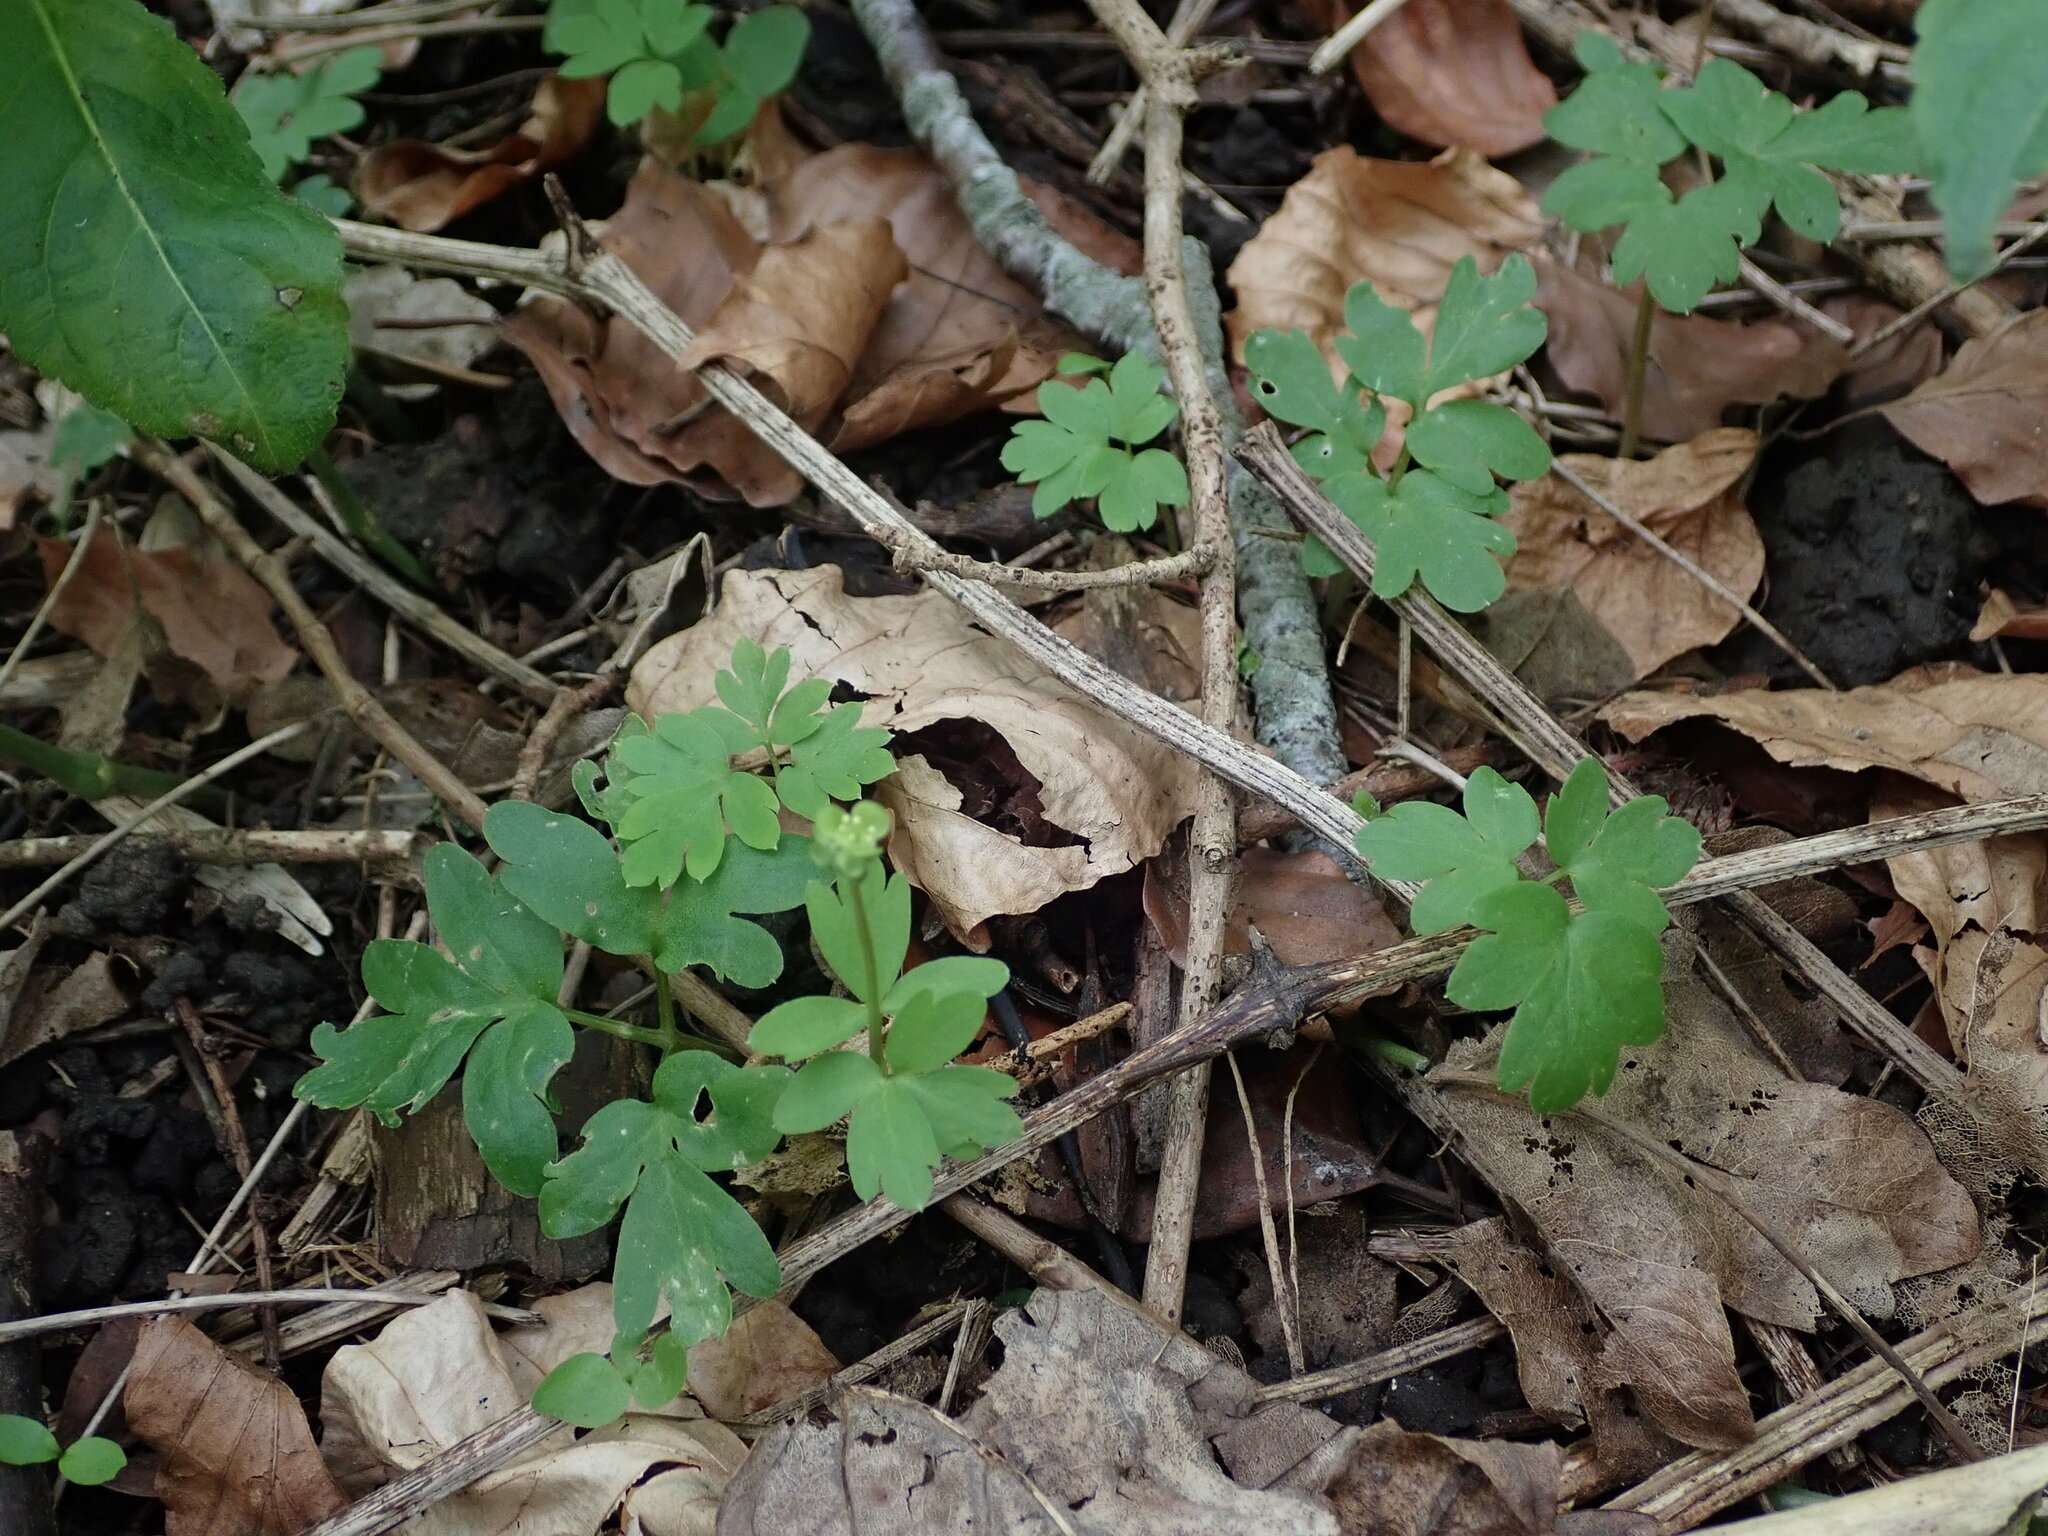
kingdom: Plantae
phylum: Tracheophyta
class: Magnoliopsida
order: Dipsacales
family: Viburnaceae
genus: Adoxa
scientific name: Adoxa moschatellina
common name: Moschatel
